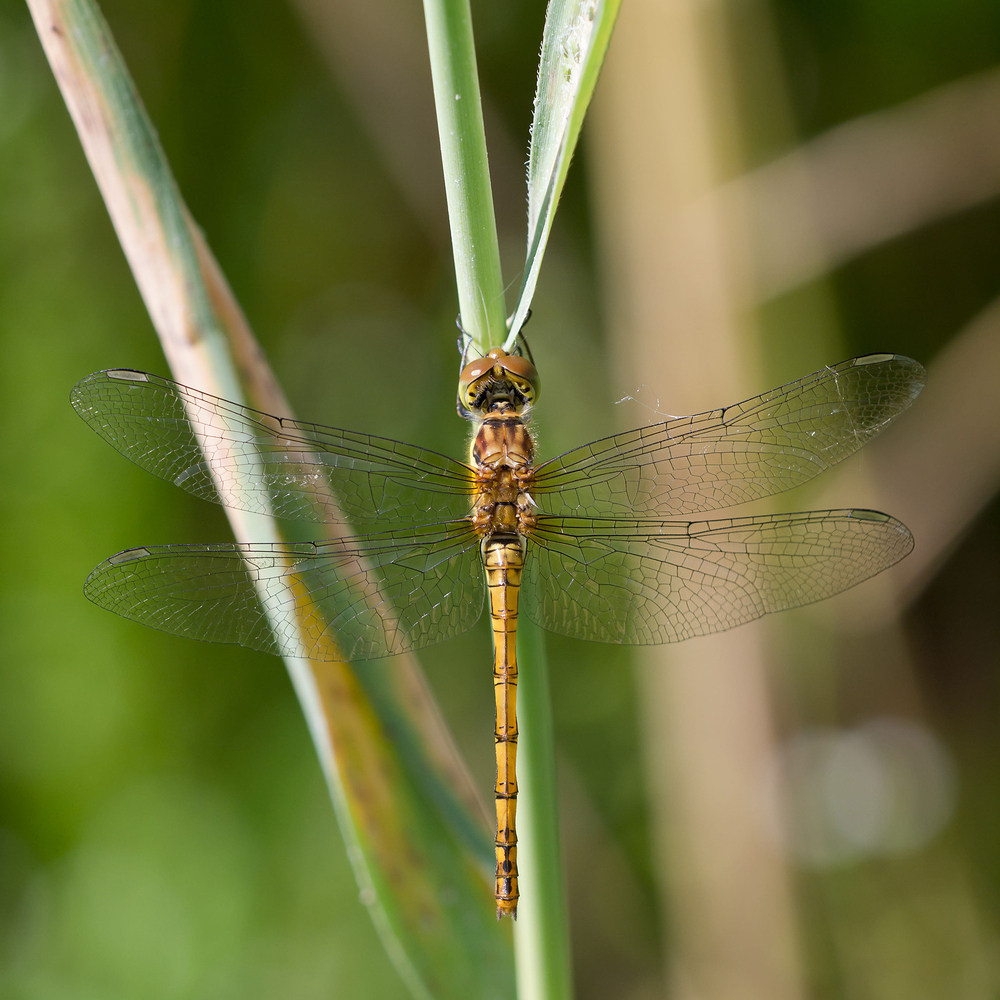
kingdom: Animalia
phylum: Arthropoda
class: Insecta
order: Odonata
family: Libellulidae
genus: Sympetrum
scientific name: Sympetrum striolatum
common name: Common darter
